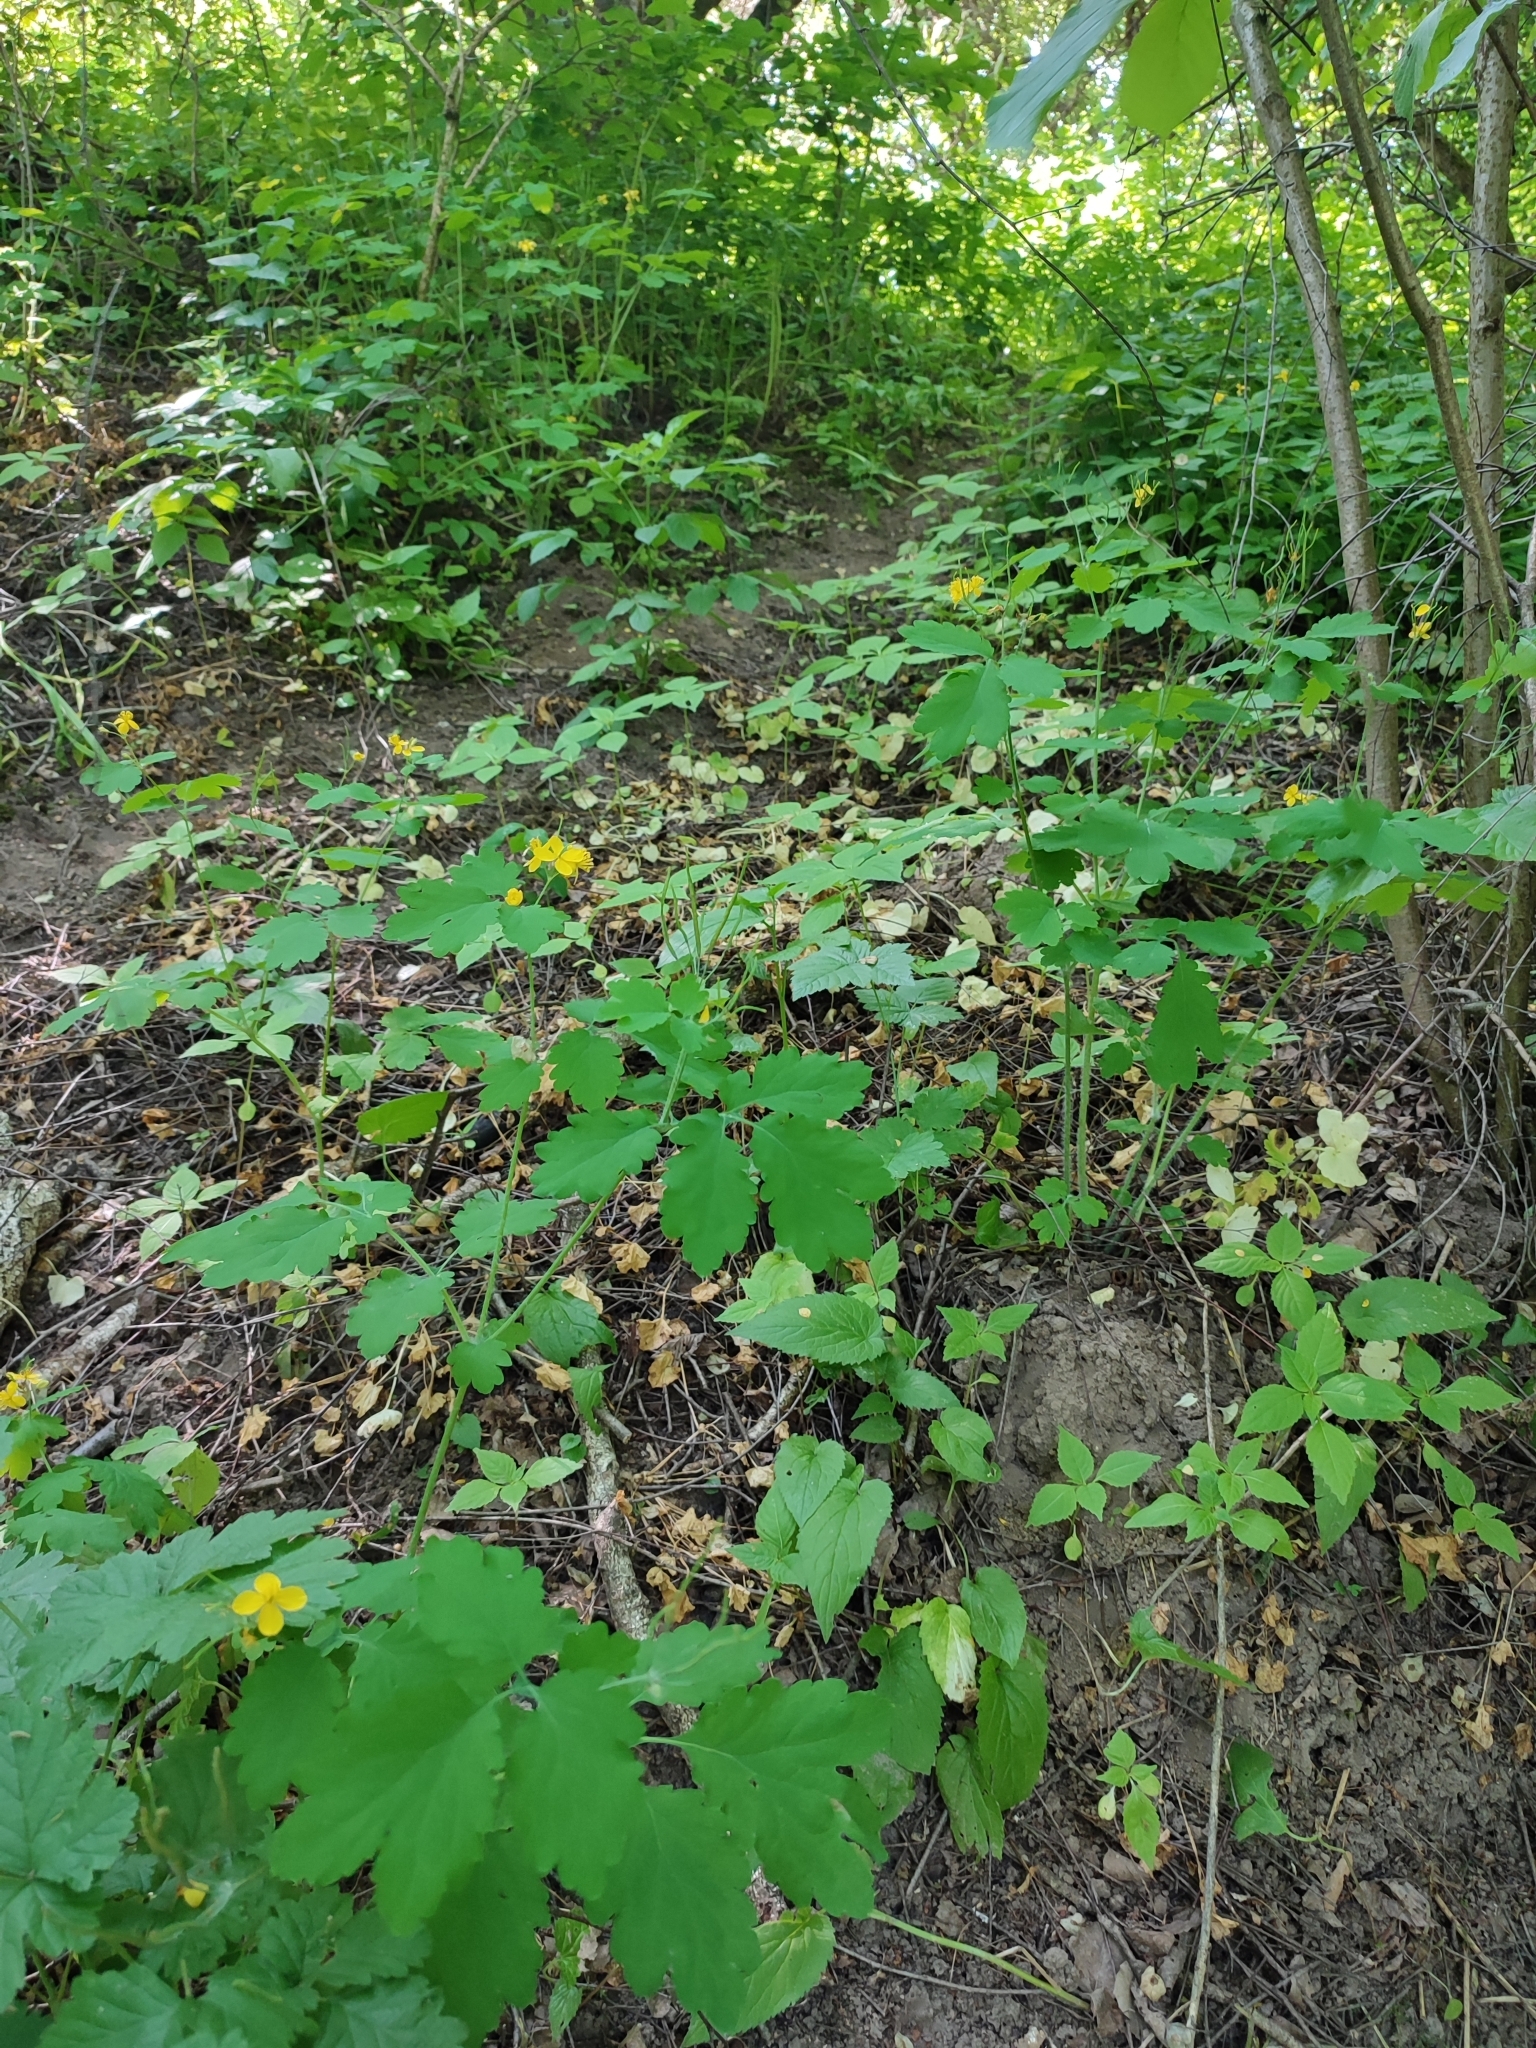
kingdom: Plantae
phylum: Tracheophyta
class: Magnoliopsida
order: Ranunculales
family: Papaveraceae
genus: Chelidonium
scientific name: Chelidonium majus
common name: Greater celandine
